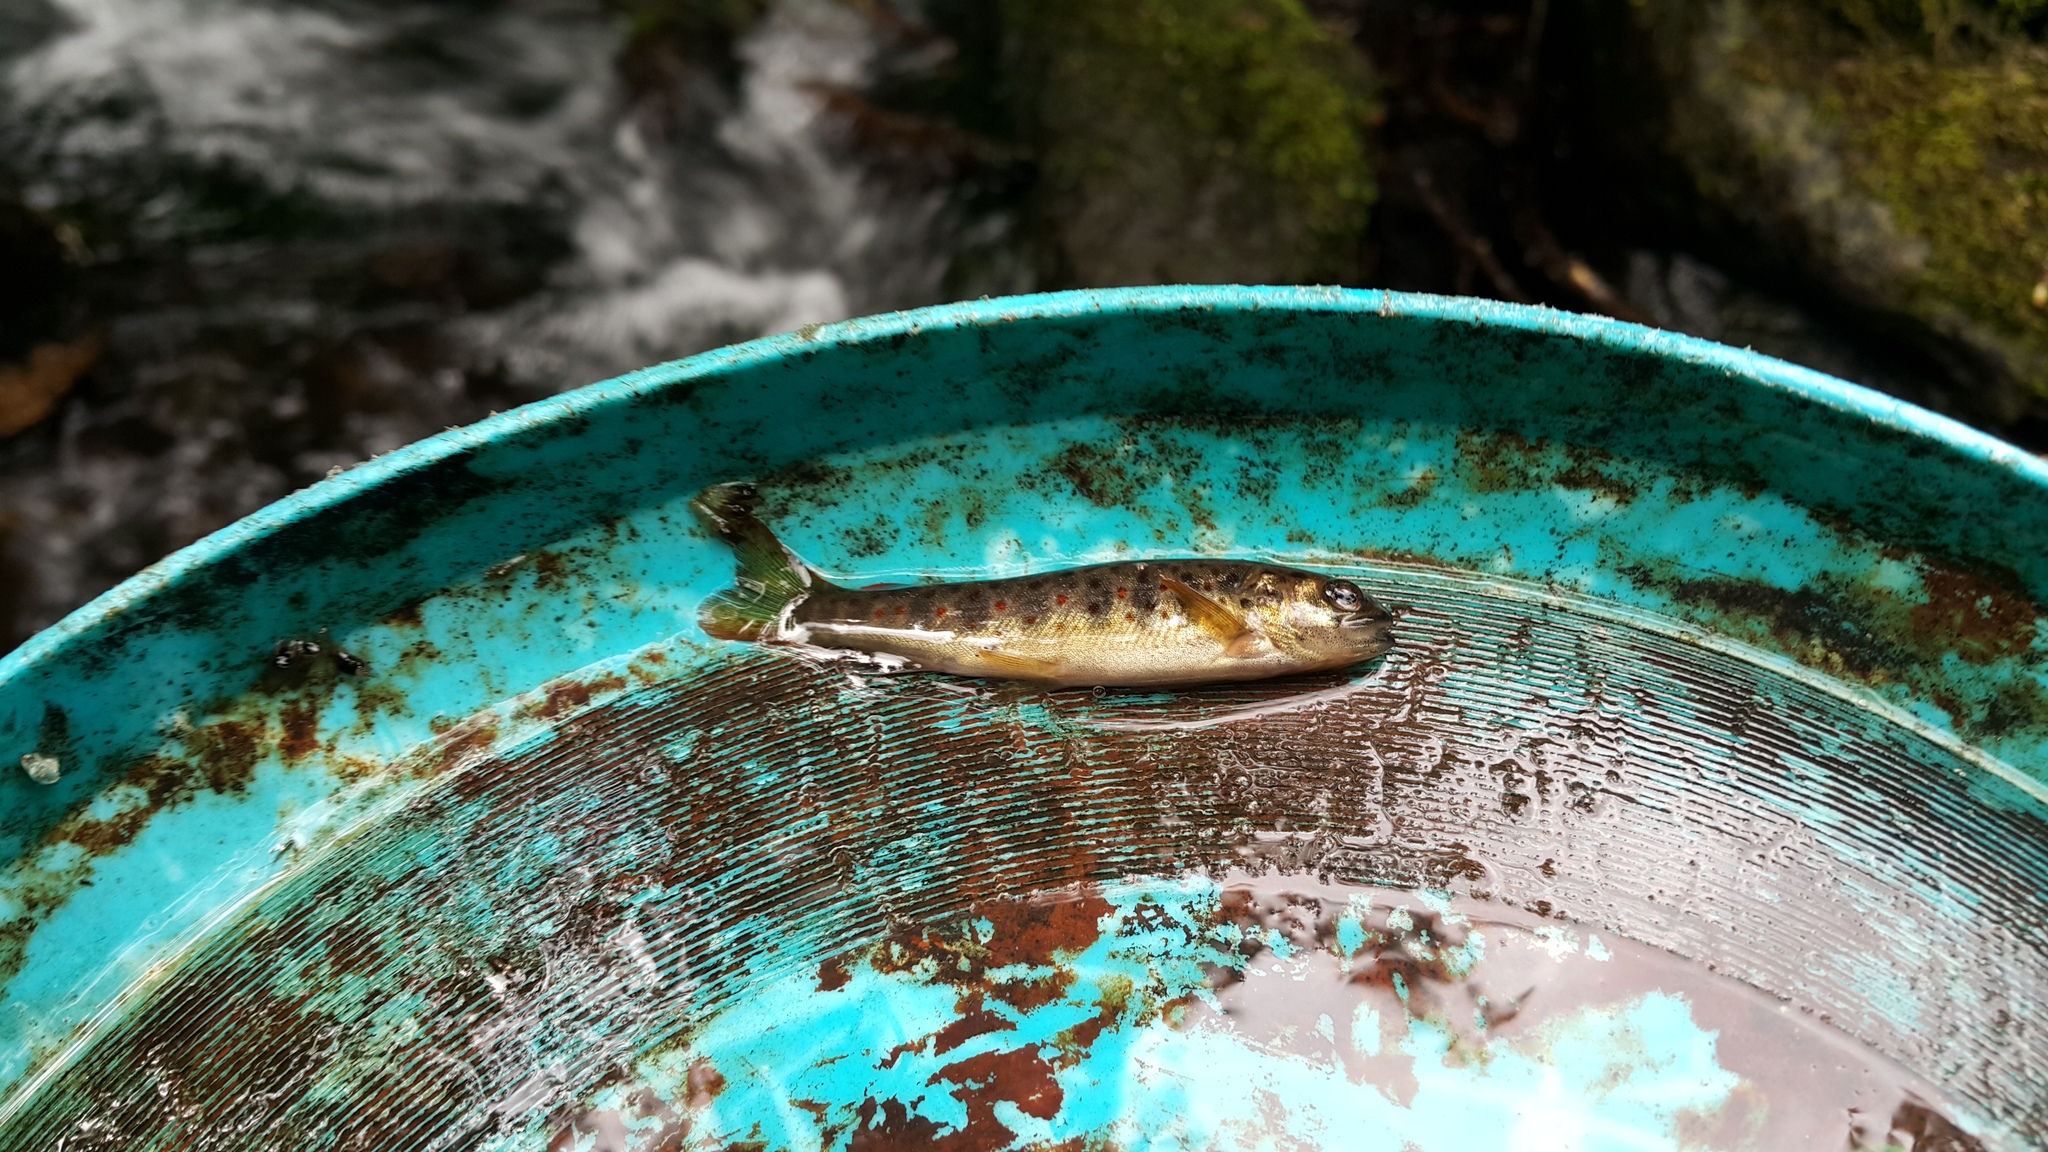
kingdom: Animalia
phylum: Chordata
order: Salmoniformes
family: Salmonidae
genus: Salmo
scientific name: Salmo trutta
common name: Brown trout
